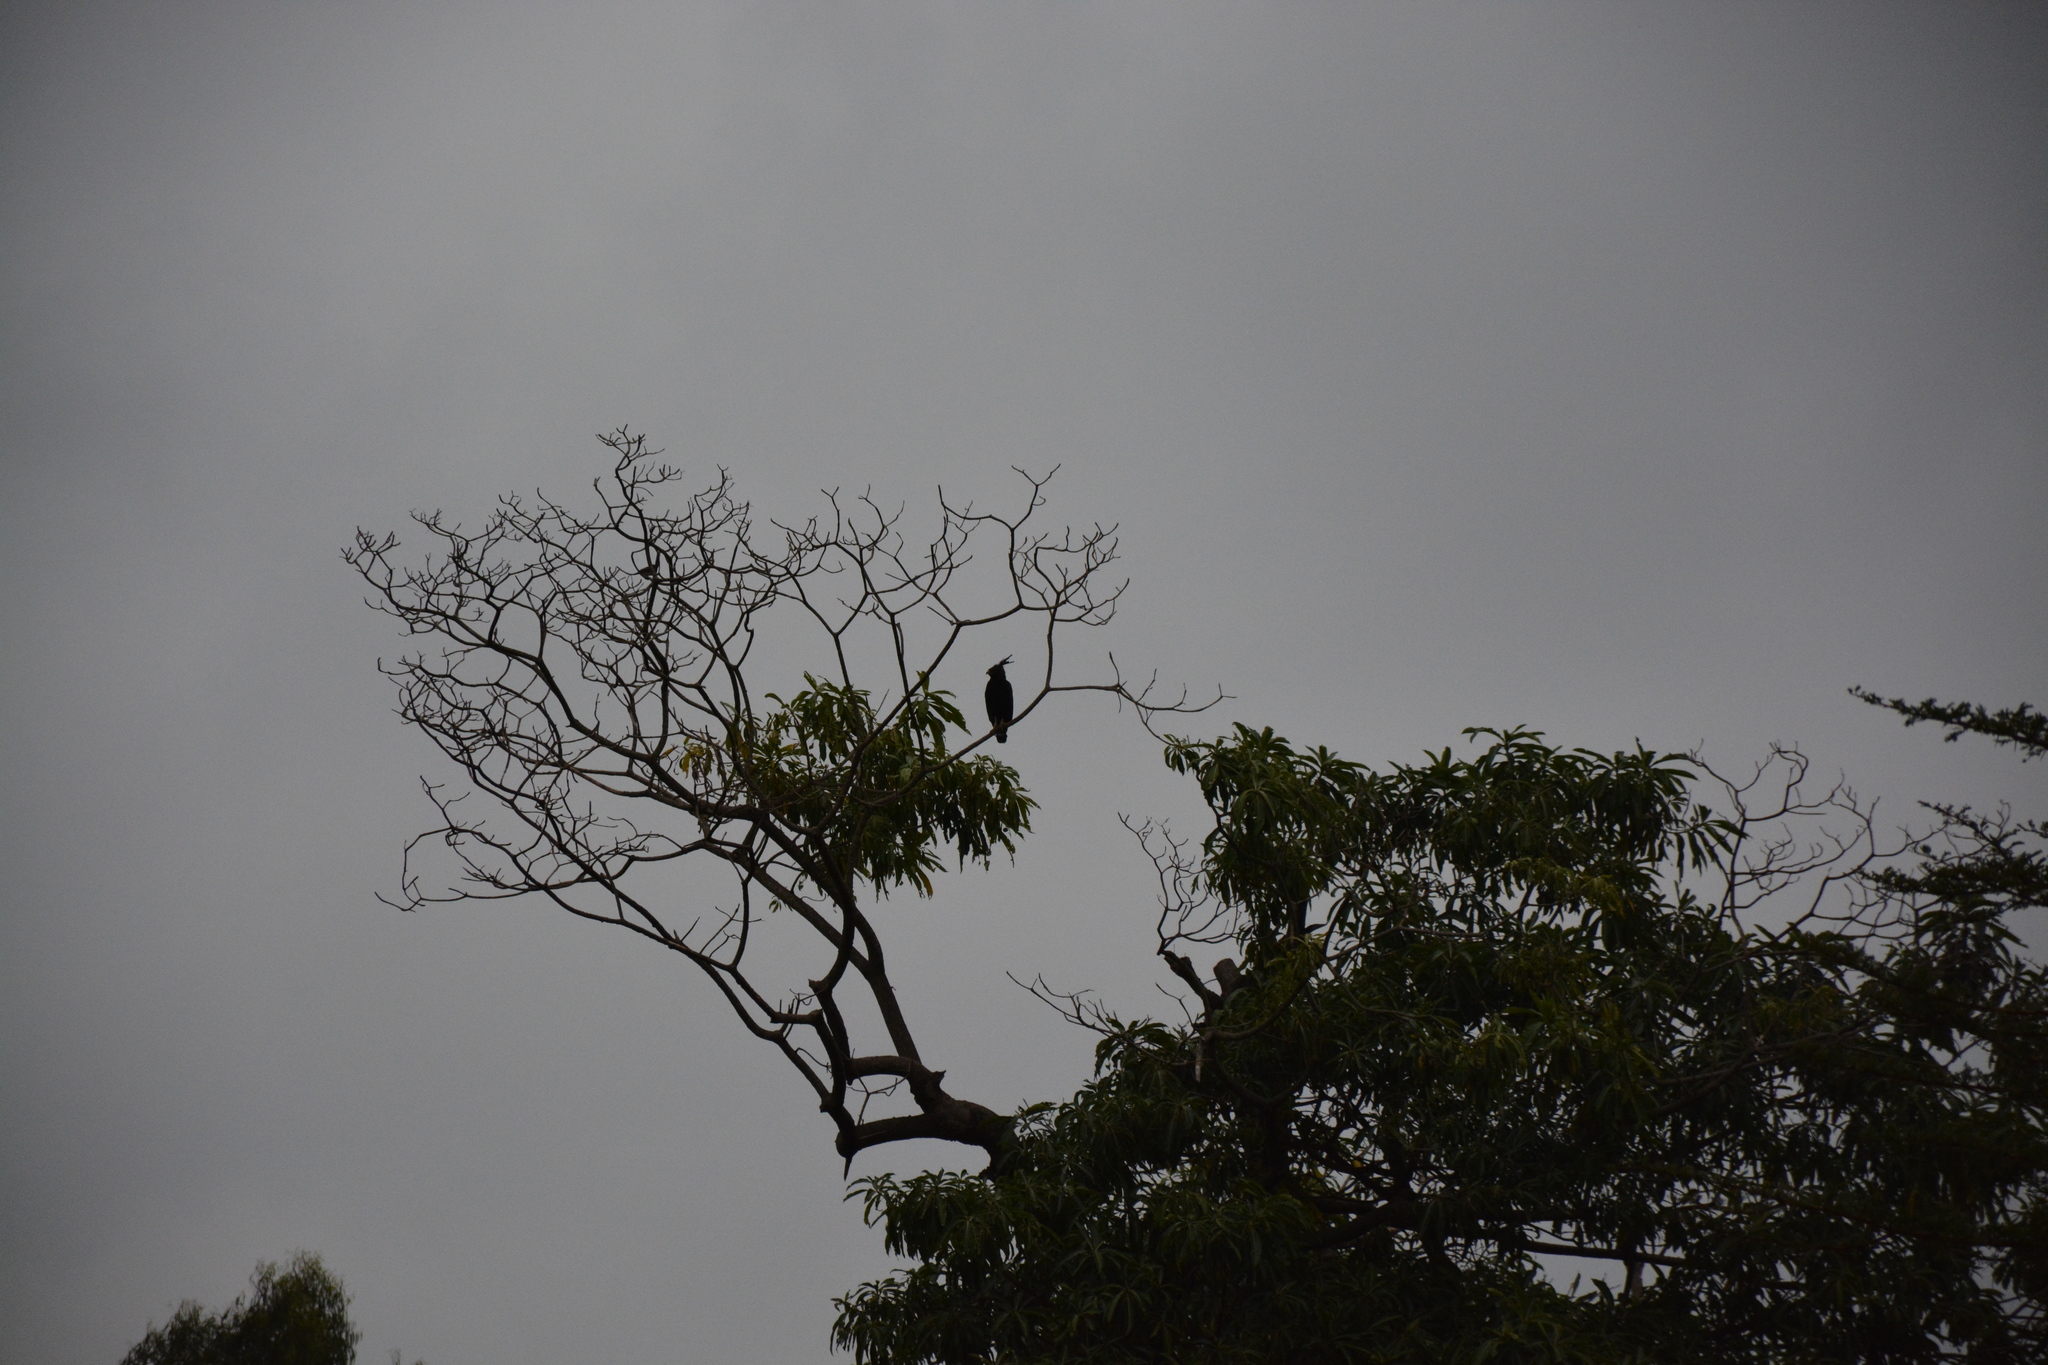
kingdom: Animalia
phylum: Chordata
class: Aves
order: Accipitriformes
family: Accipitridae
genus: Lophaetus
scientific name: Lophaetus occipitalis
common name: Long-crested eagle
